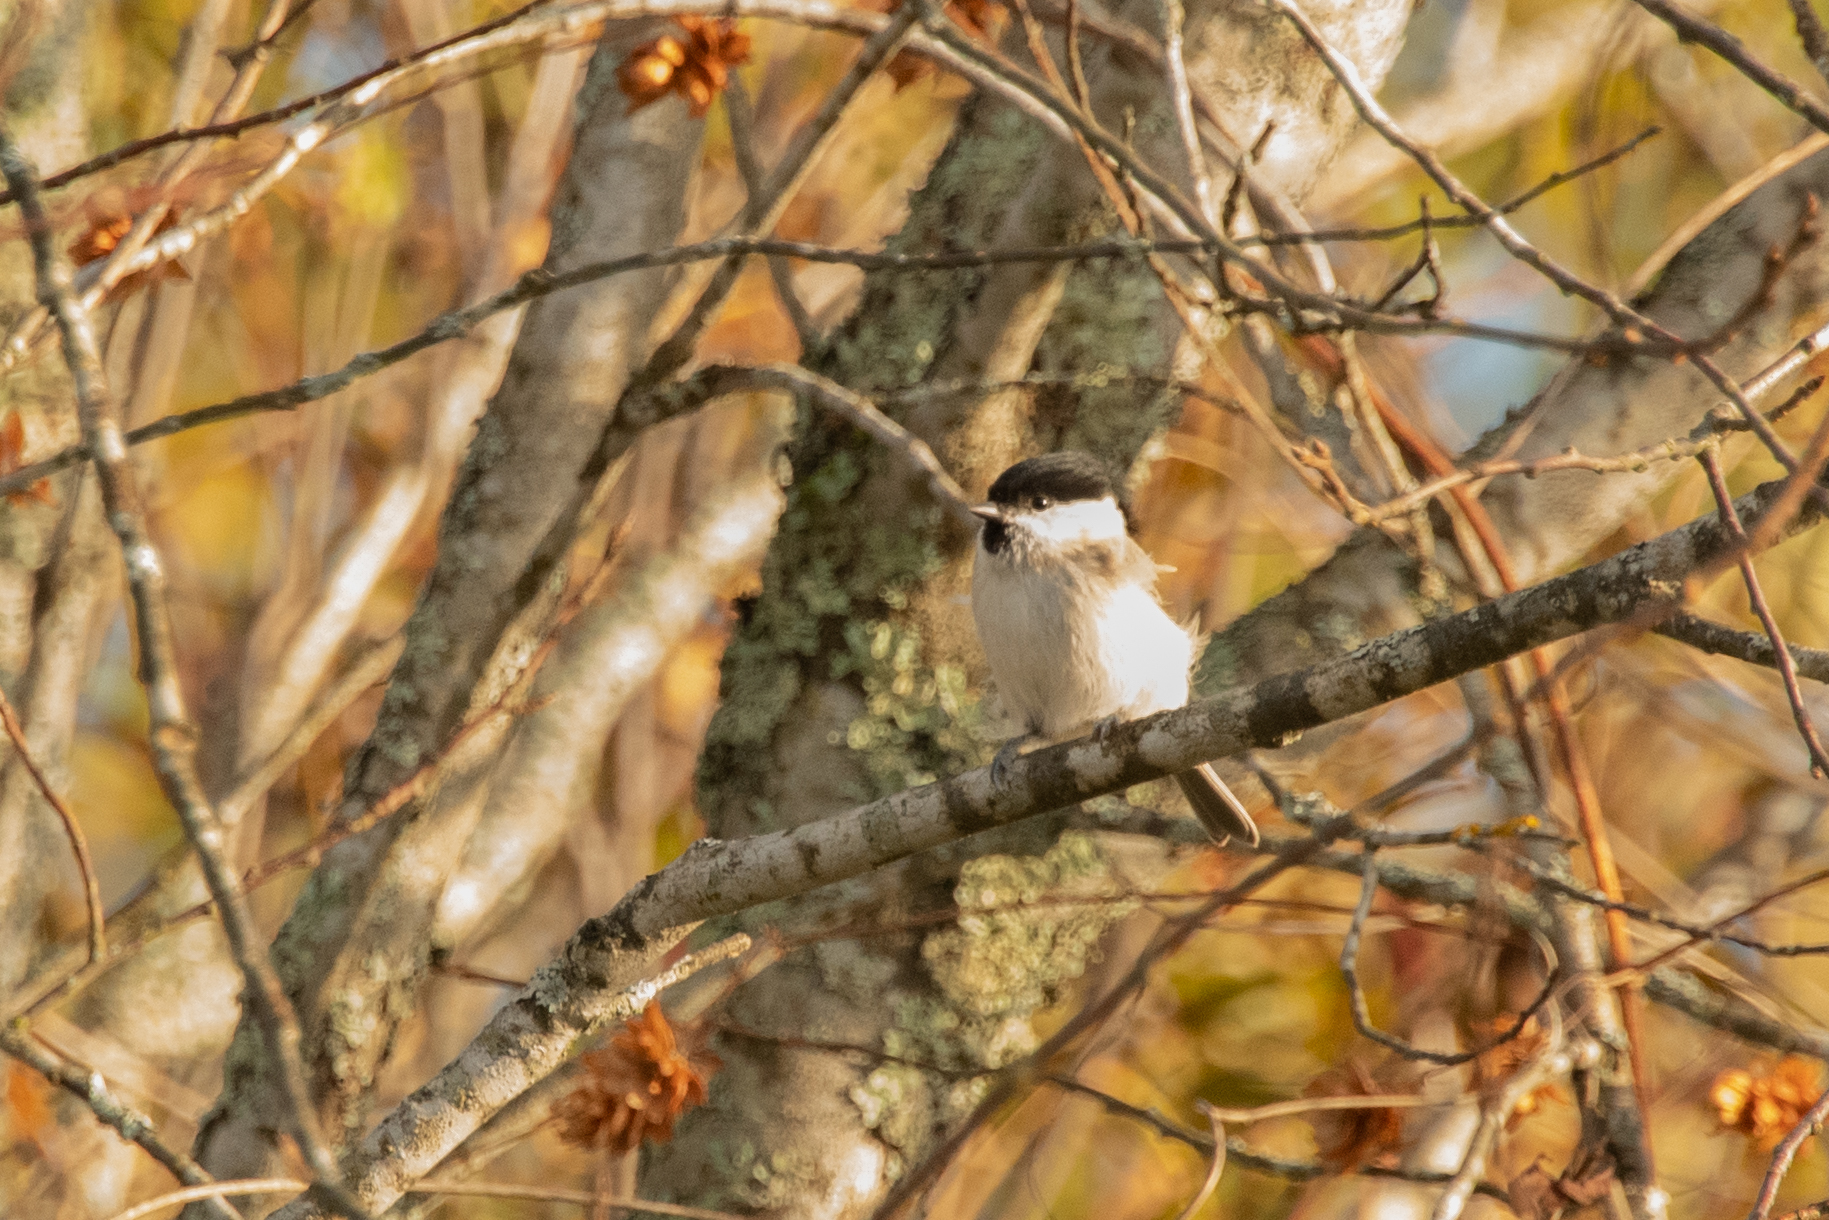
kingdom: Animalia
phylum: Chordata
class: Aves
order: Passeriformes
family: Paridae
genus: Poecile
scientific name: Poecile palustris
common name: Marsh tit
